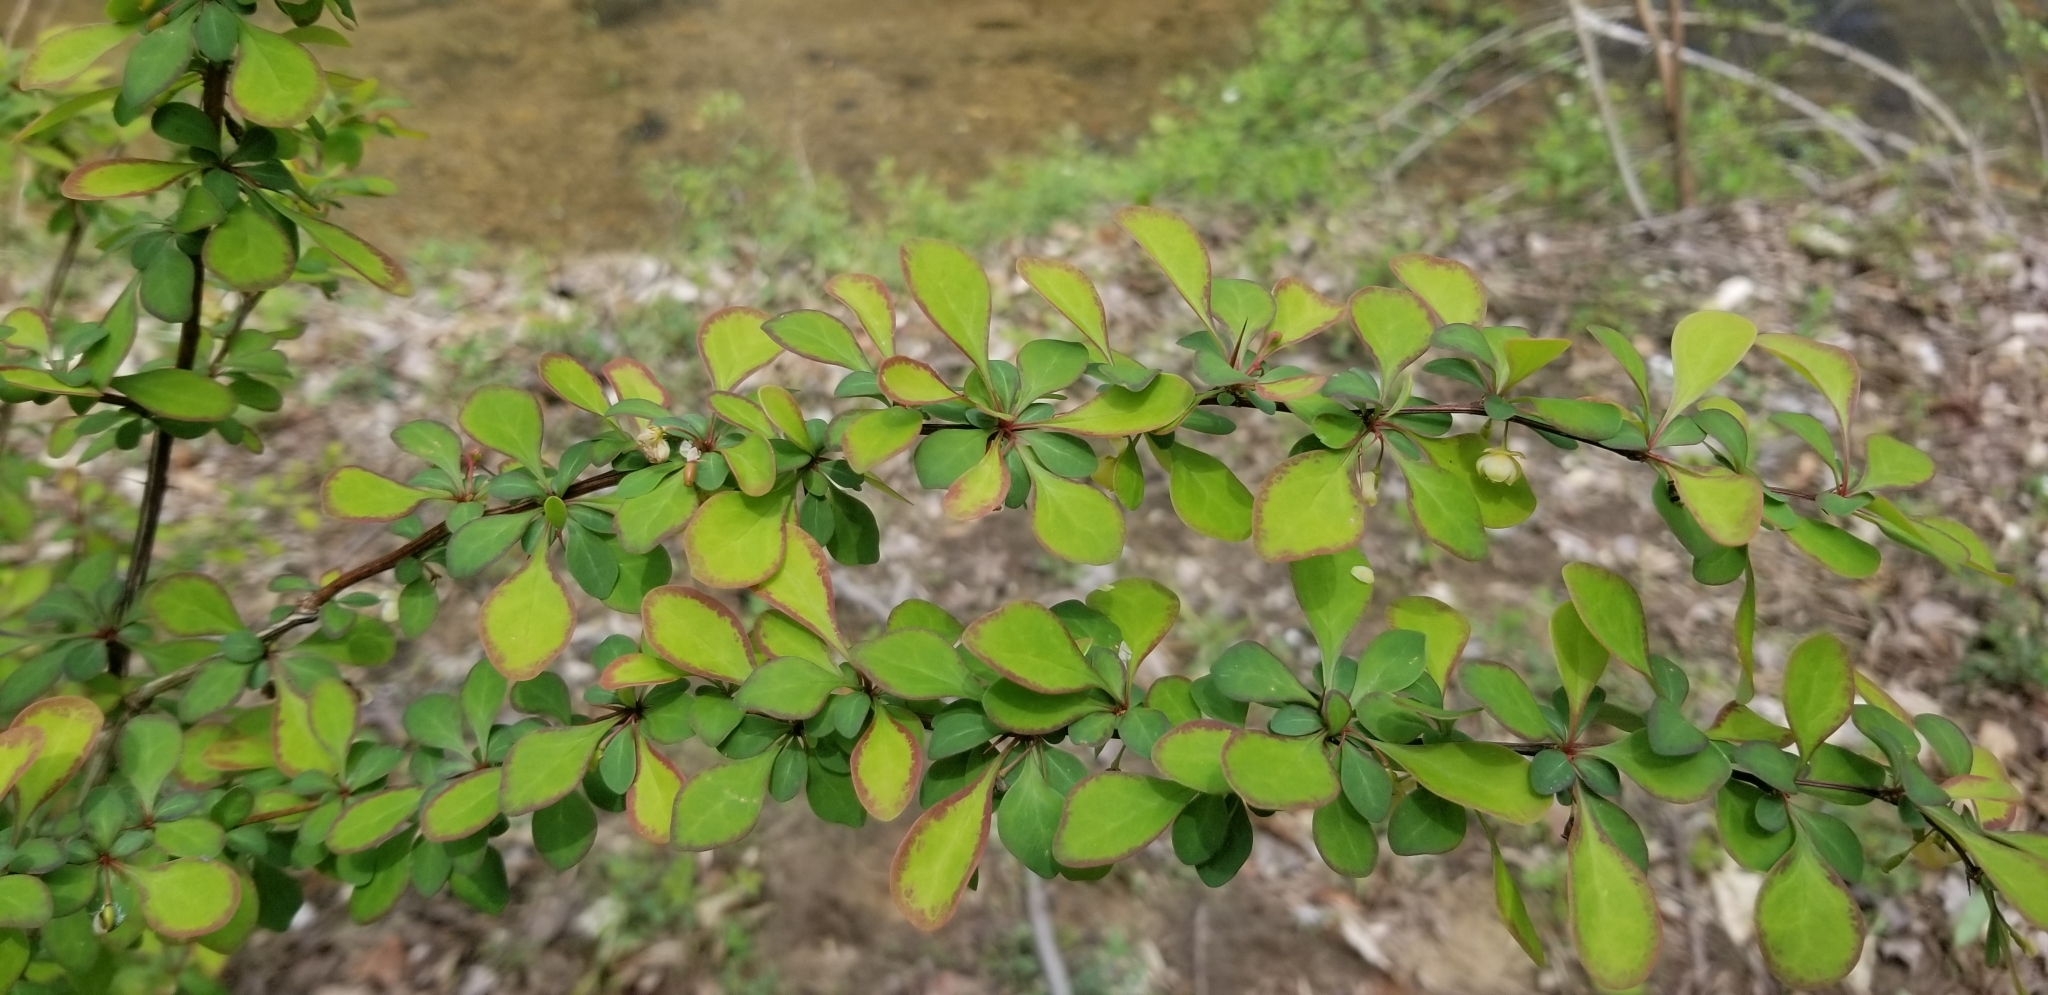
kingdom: Plantae
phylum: Tracheophyta
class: Magnoliopsida
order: Ranunculales
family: Berberidaceae
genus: Berberis
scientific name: Berberis thunbergii
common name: Japanese barberry
